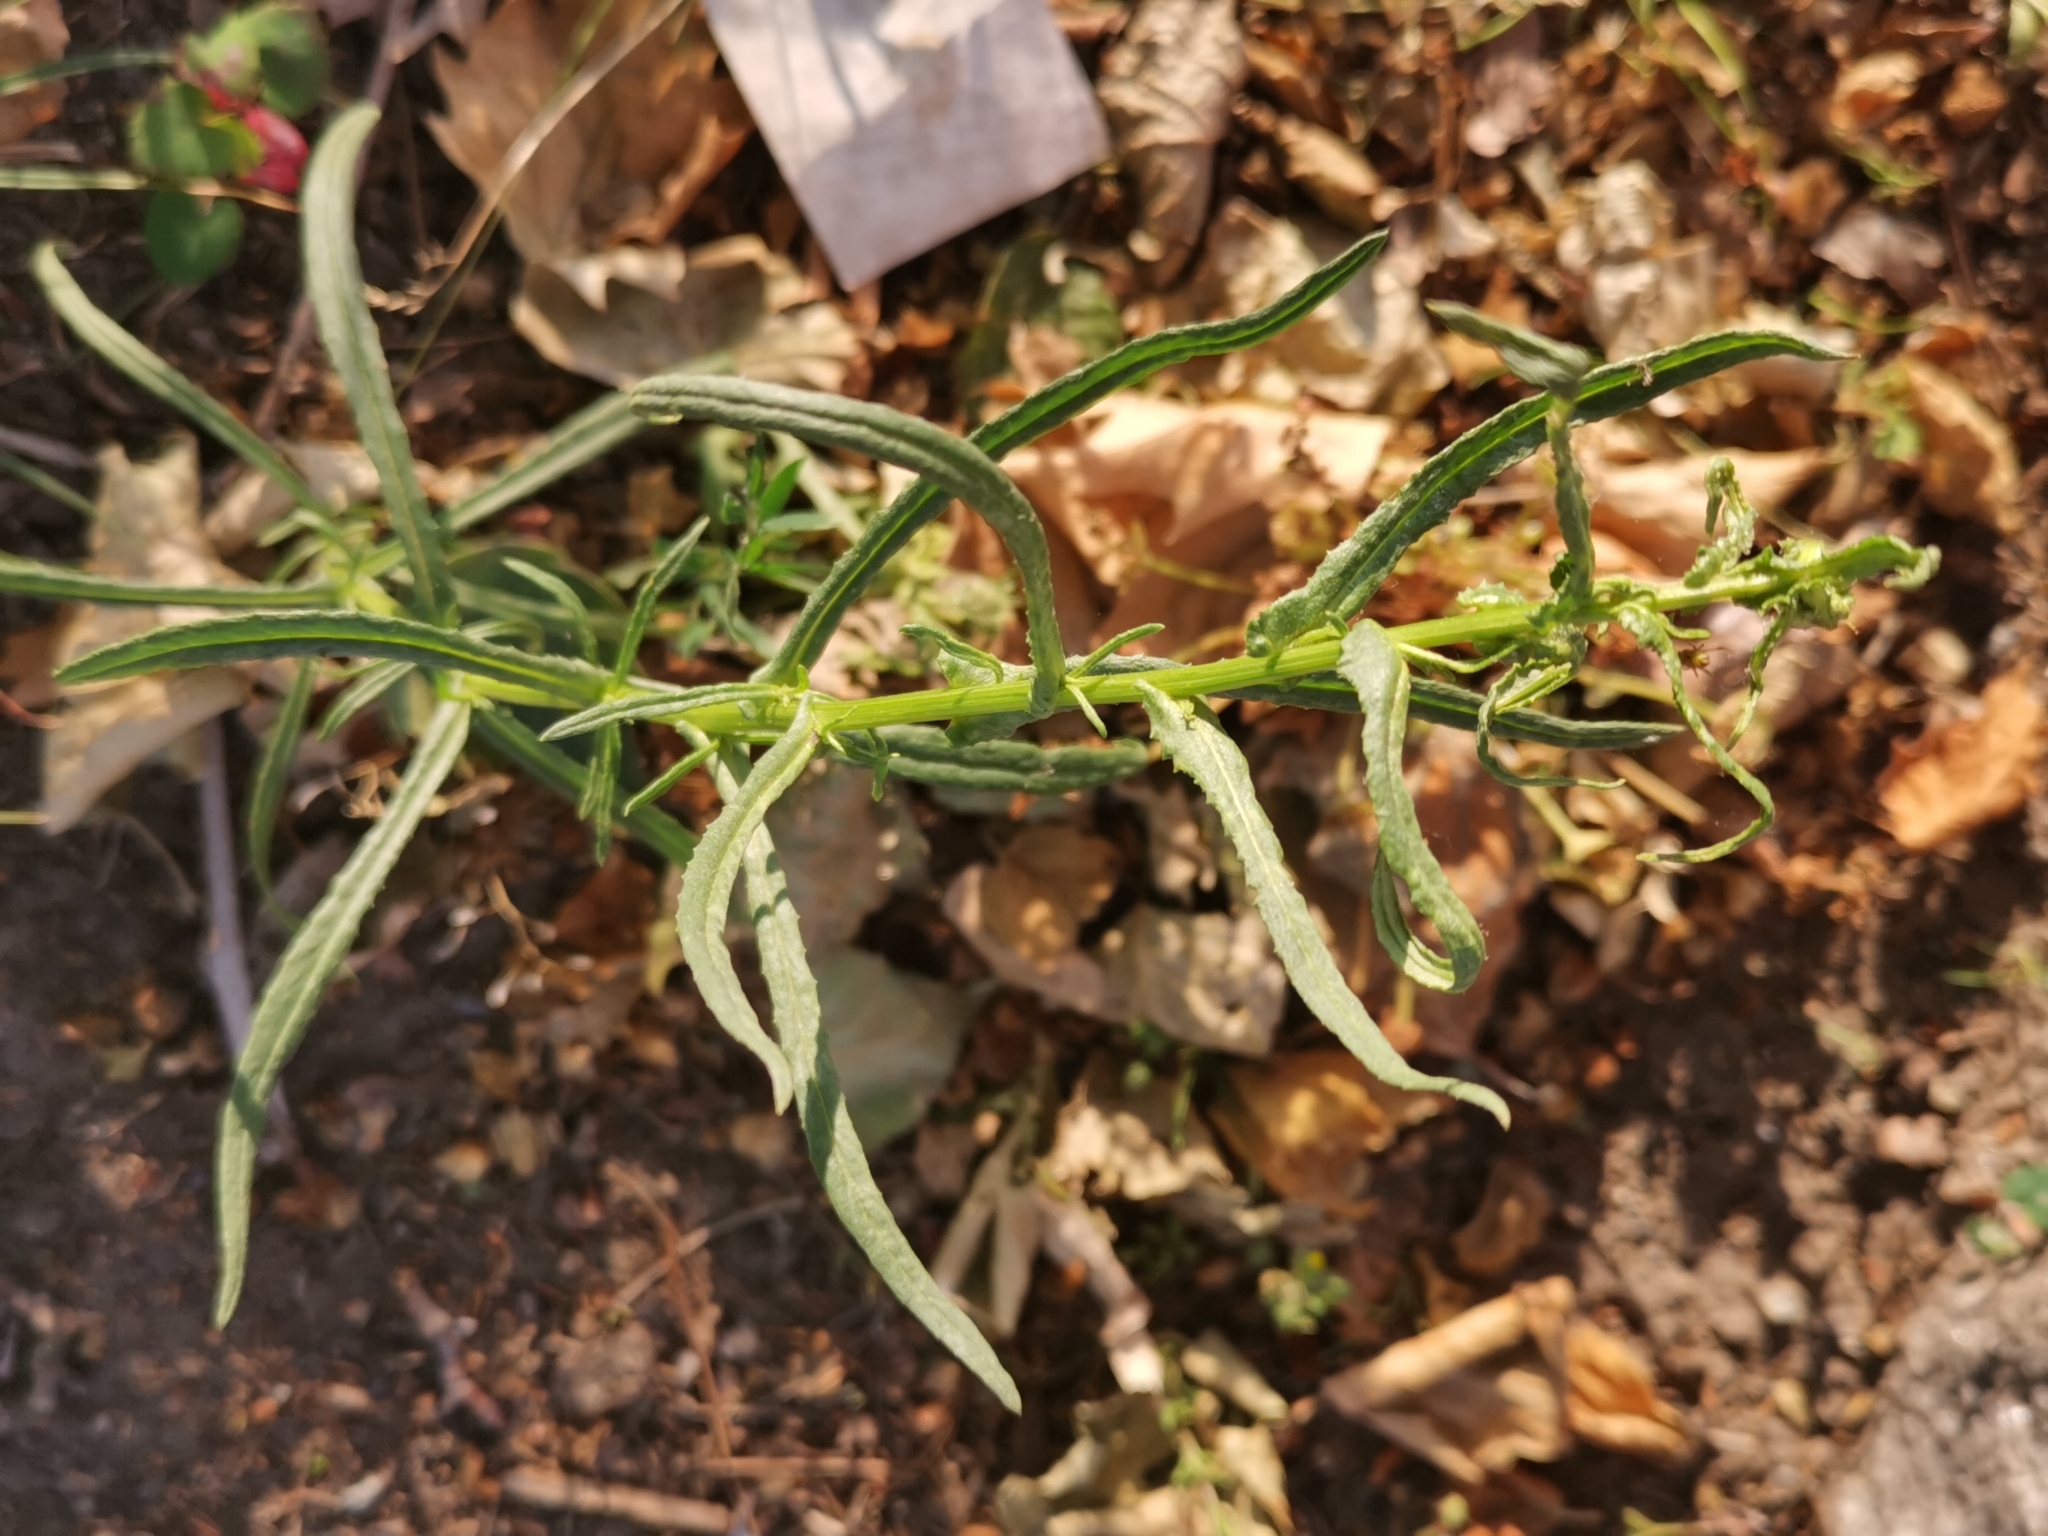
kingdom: Plantae
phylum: Tracheophyta
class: Magnoliopsida
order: Asterales
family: Asteraceae
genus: Senecio
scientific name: Senecio inaequidens
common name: Narrow-leaved ragwort
